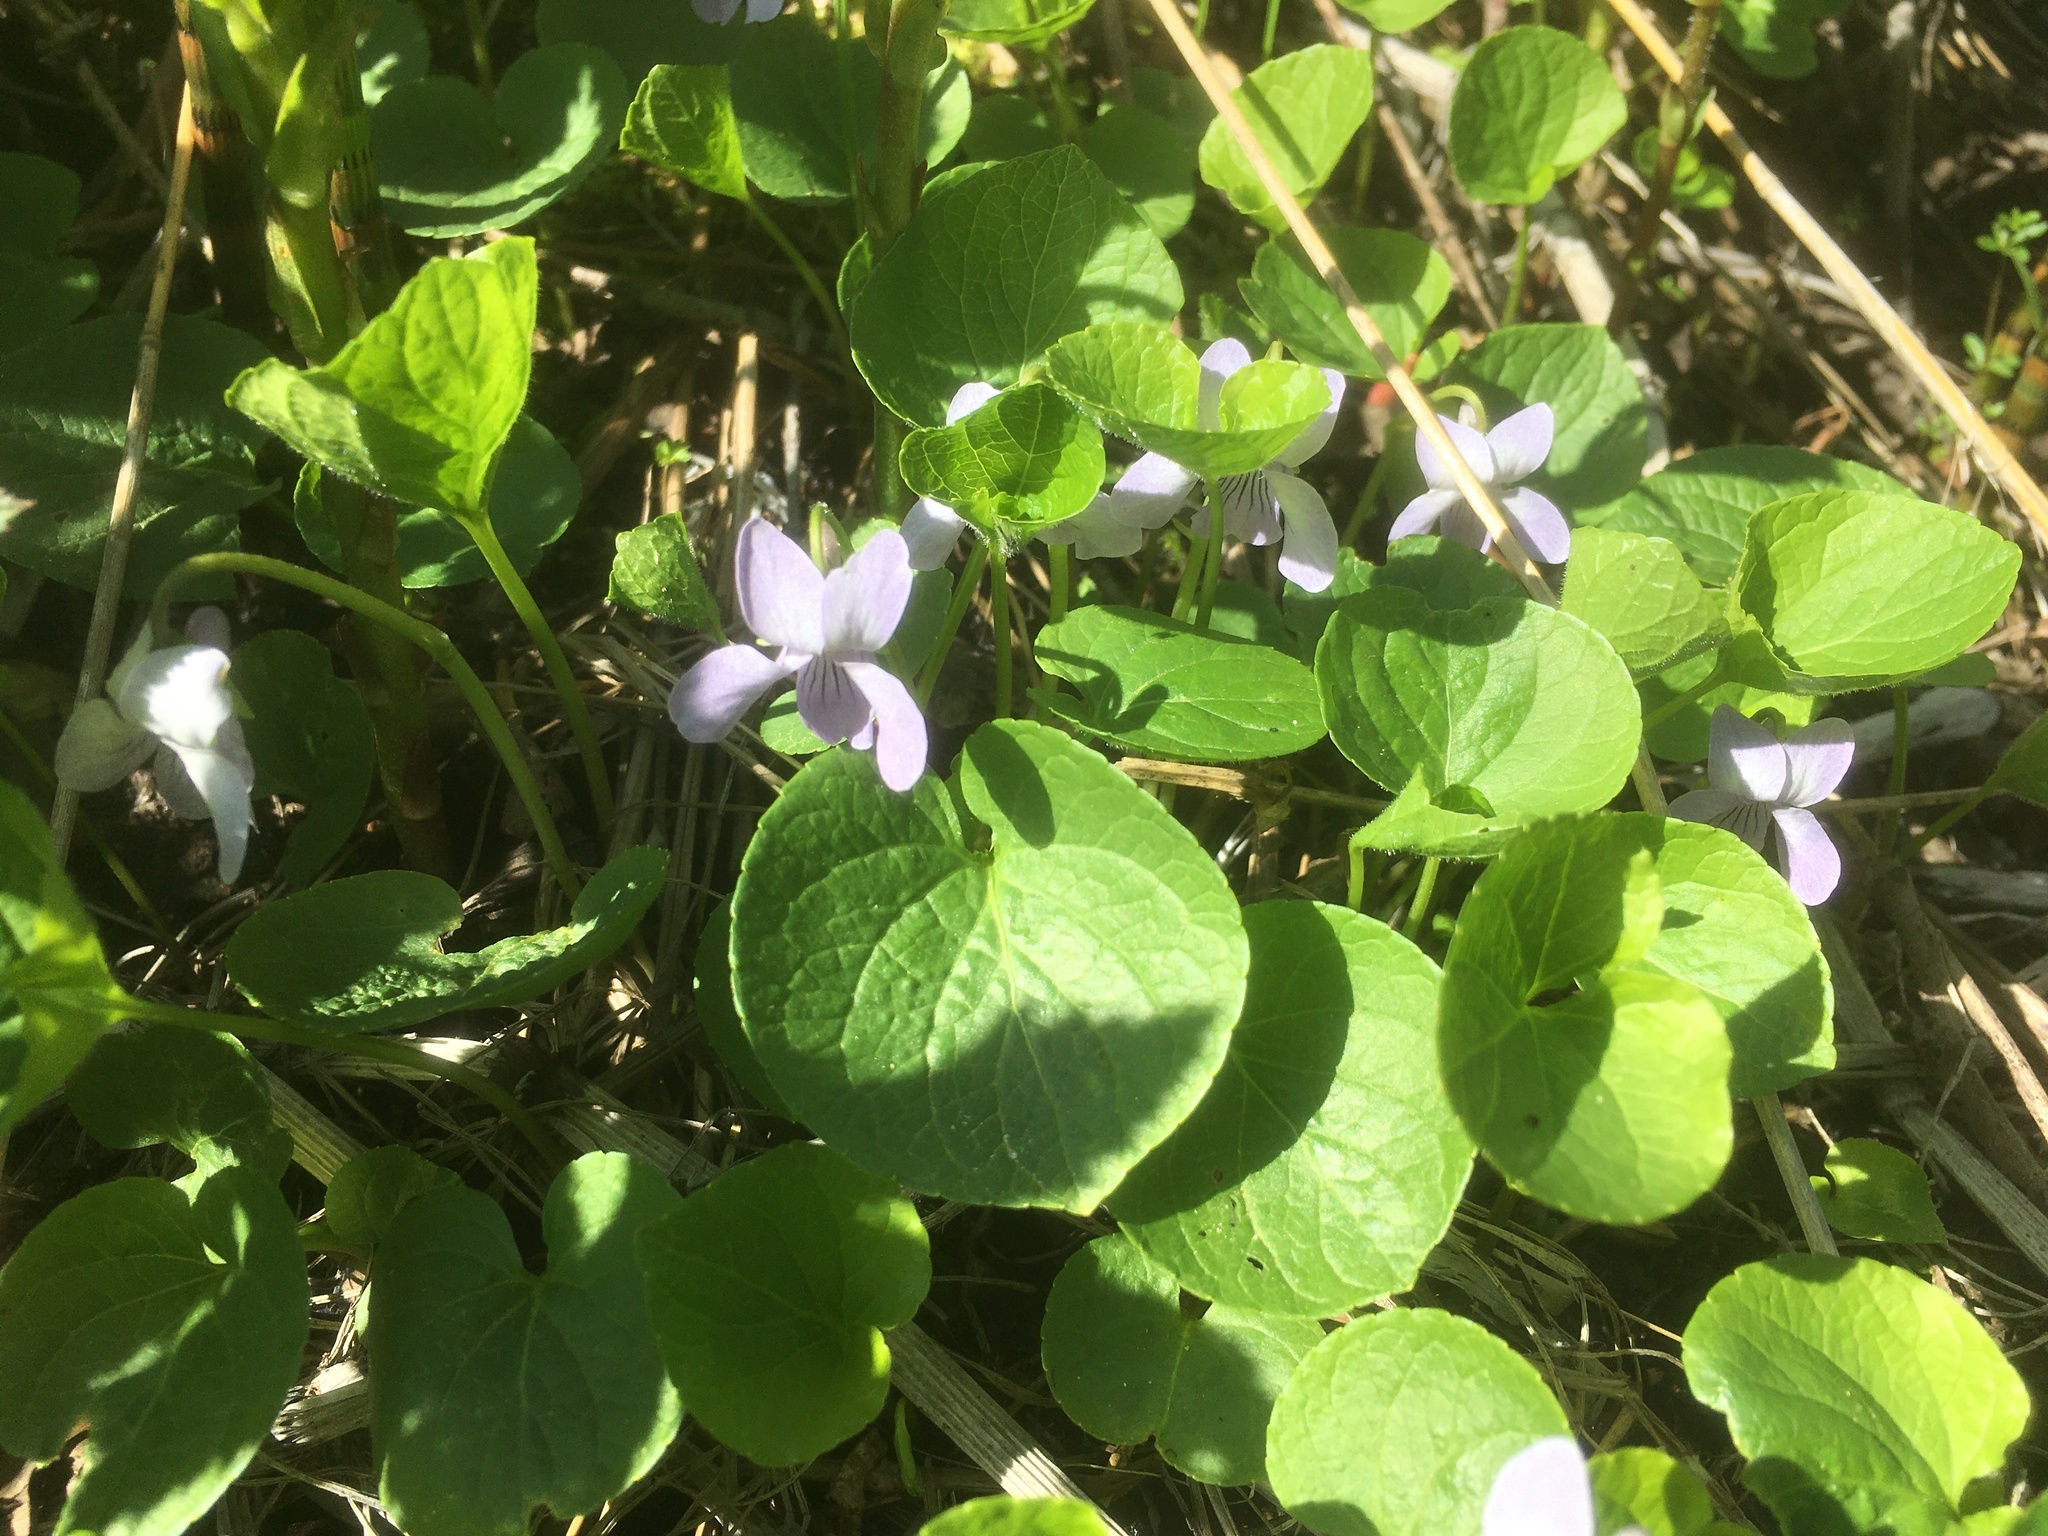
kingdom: Plantae
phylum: Tracheophyta
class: Magnoliopsida
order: Malpighiales
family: Violaceae
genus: Viola
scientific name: Viola palustris
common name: Marsh violet
